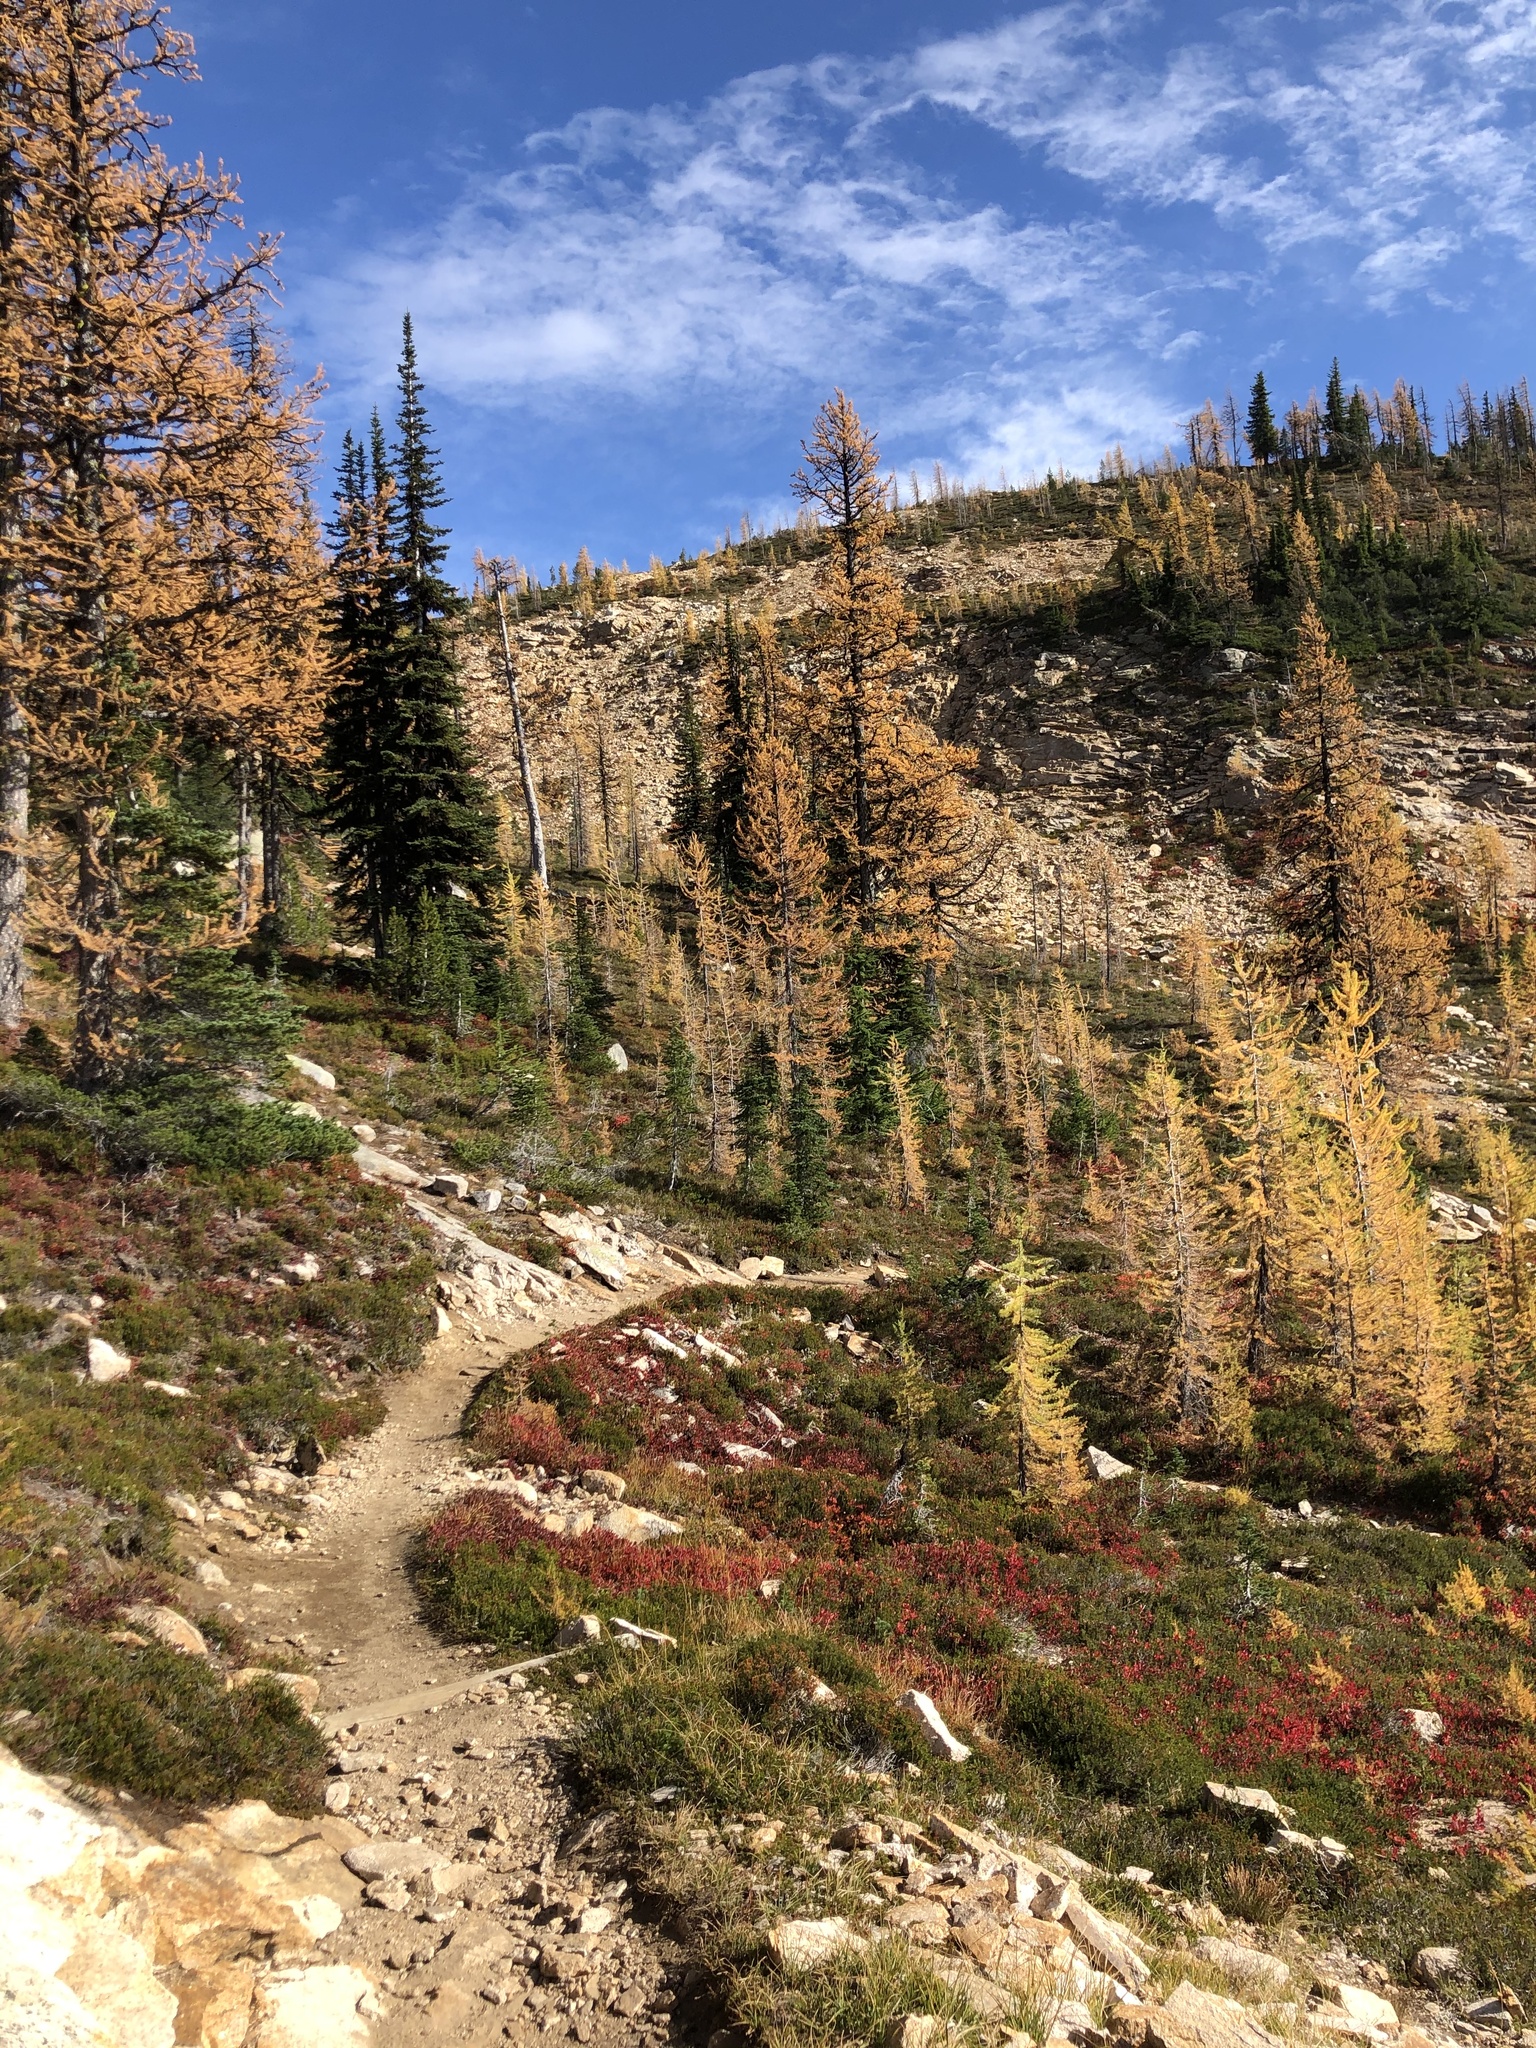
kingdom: Plantae
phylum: Tracheophyta
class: Pinopsida
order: Pinales
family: Pinaceae
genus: Abies
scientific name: Abies lasiocarpa
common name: Subalpine fir
